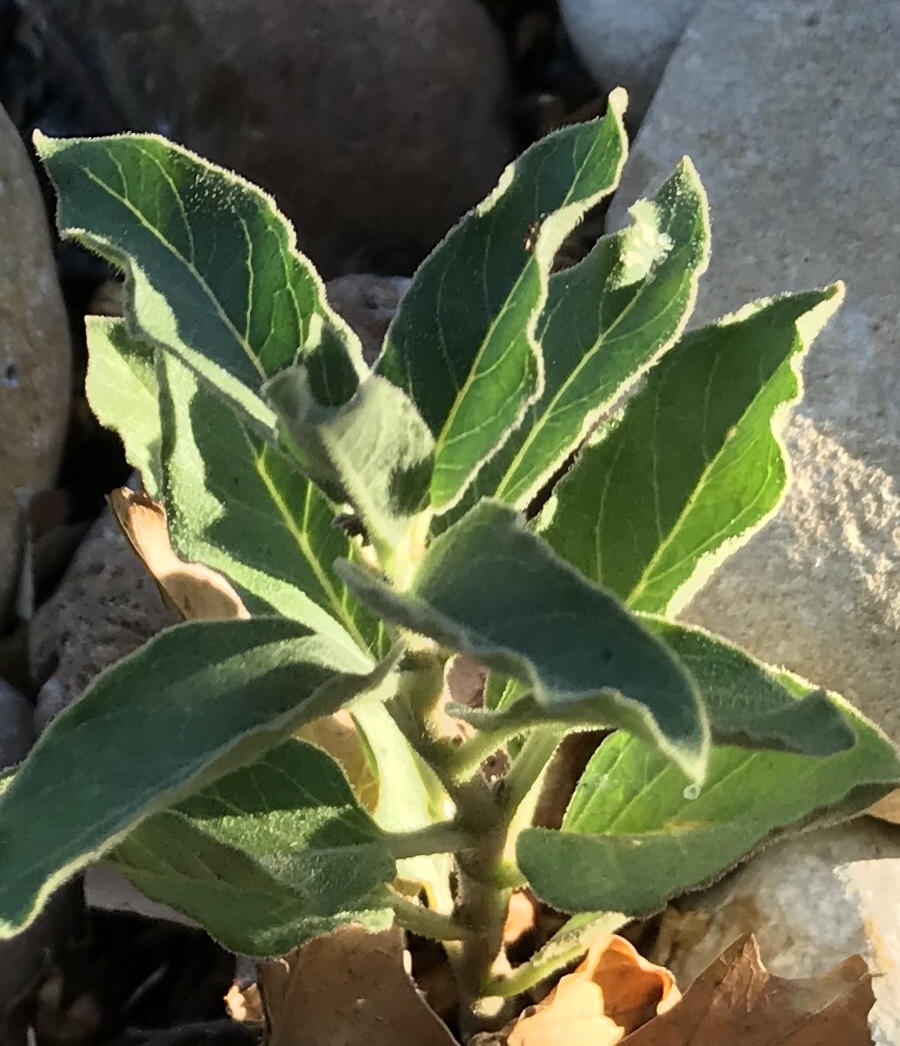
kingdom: Plantae
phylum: Tracheophyta
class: Magnoliopsida
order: Gentianales
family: Apocynaceae
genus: Asclepias
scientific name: Asclepias oenotheroides
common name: Zizotes milkweed
